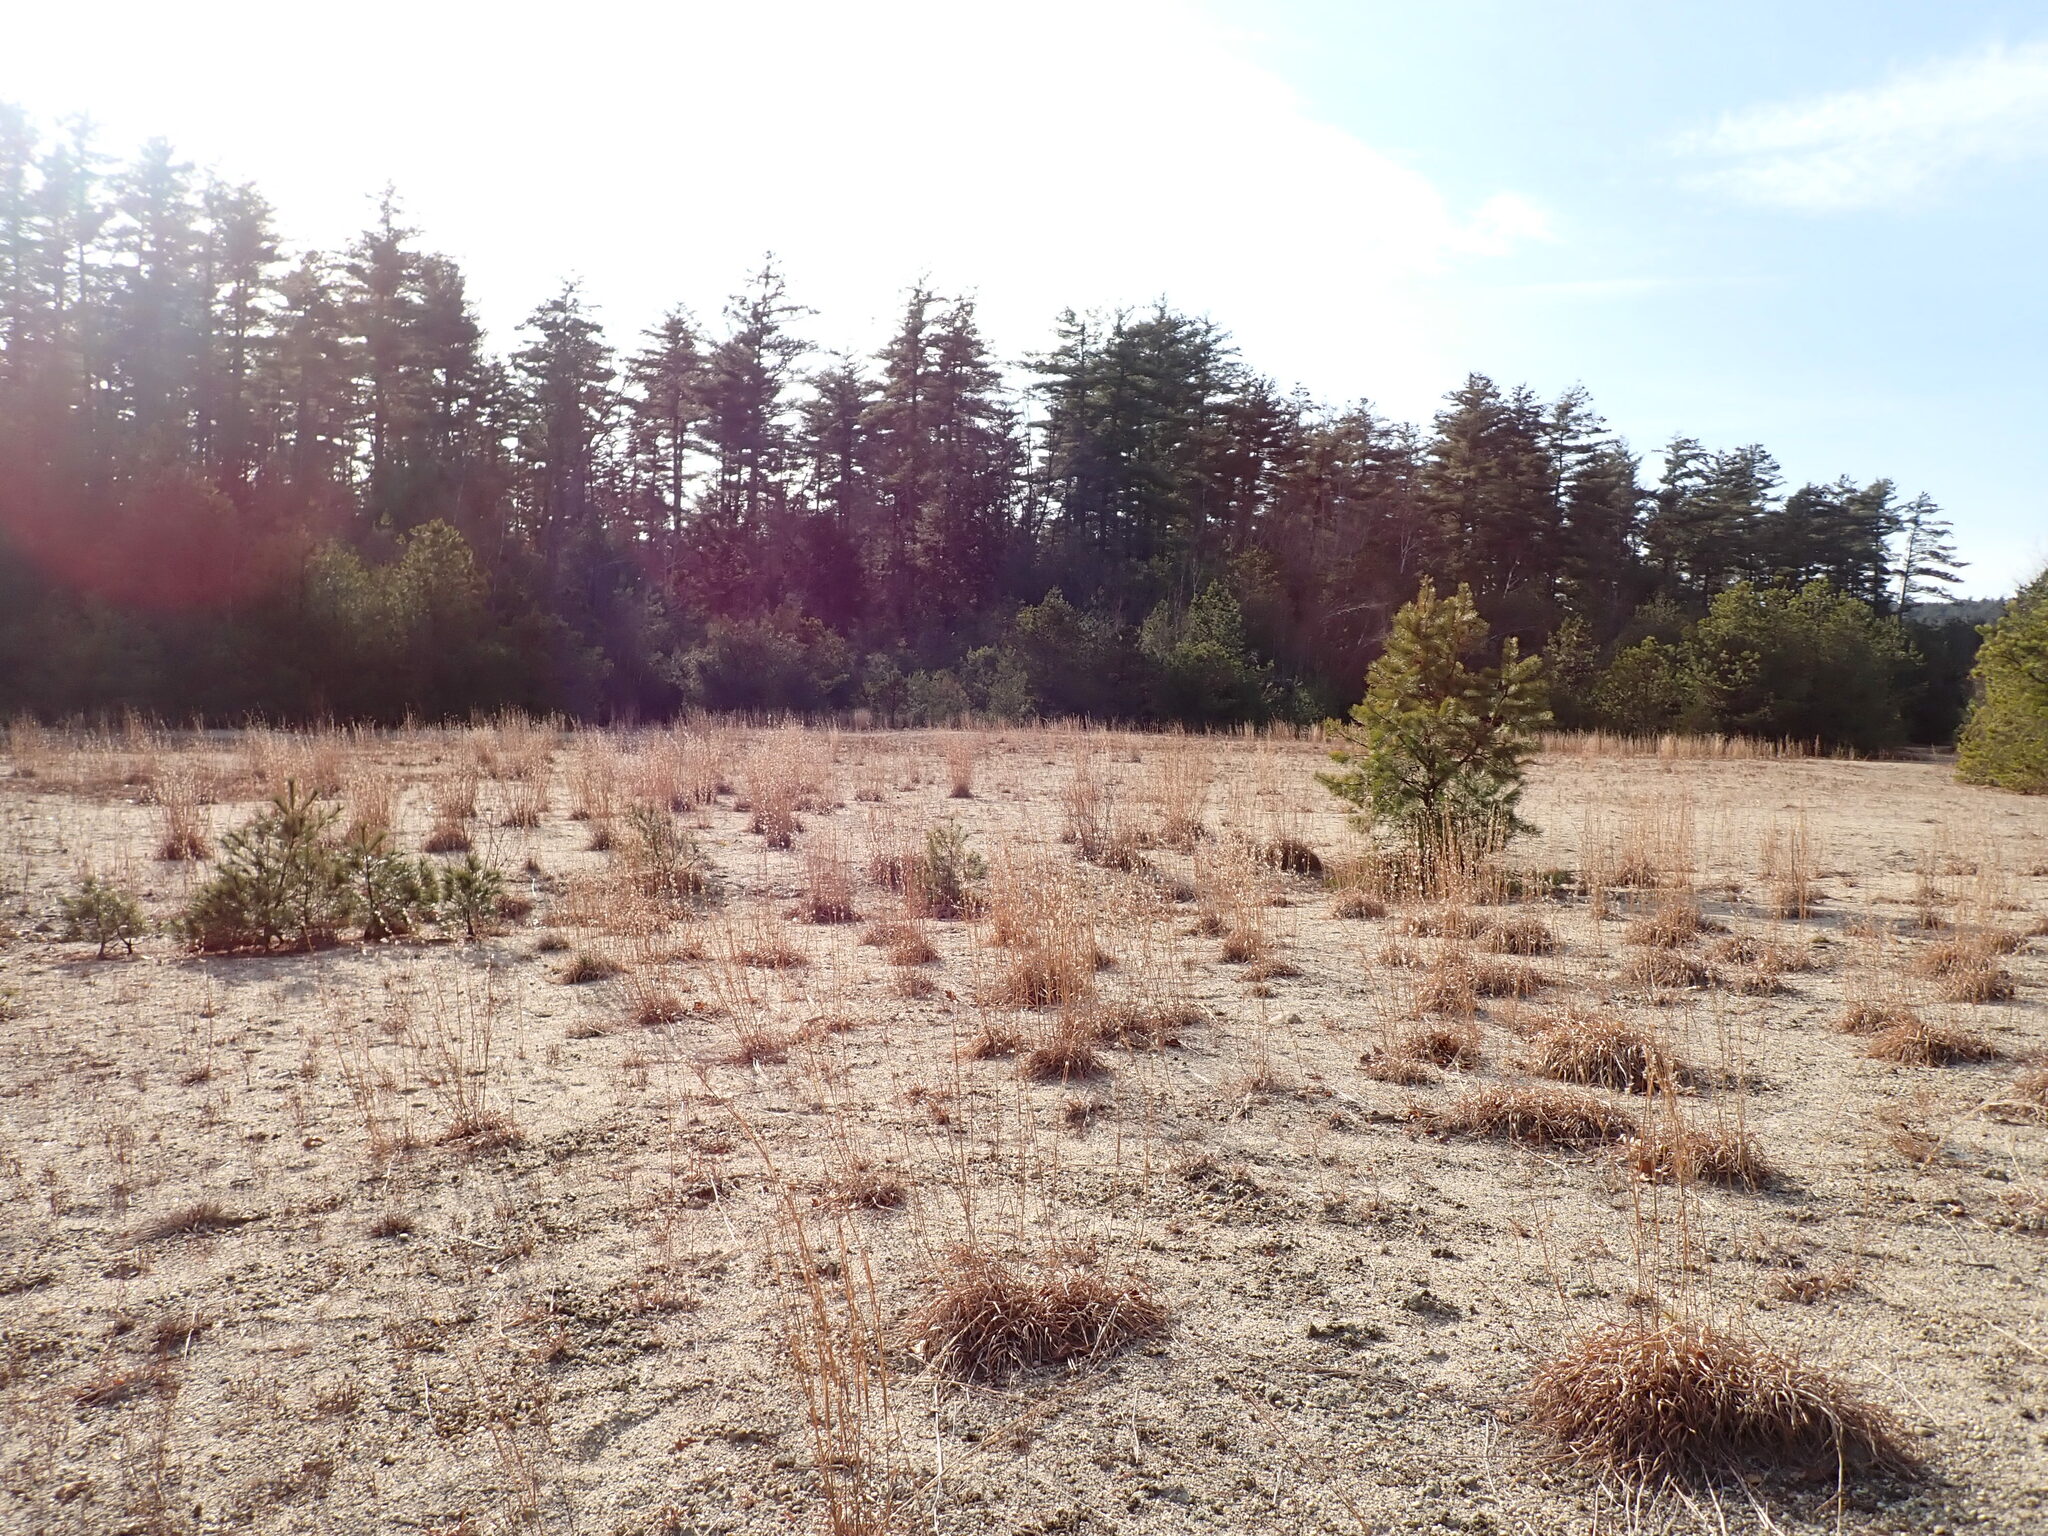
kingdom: Plantae
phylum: Tracheophyta
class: Liliopsida
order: Poales
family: Poaceae
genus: Schizachyrium
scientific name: Schizachyrium scoparium
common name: Little bluestem
